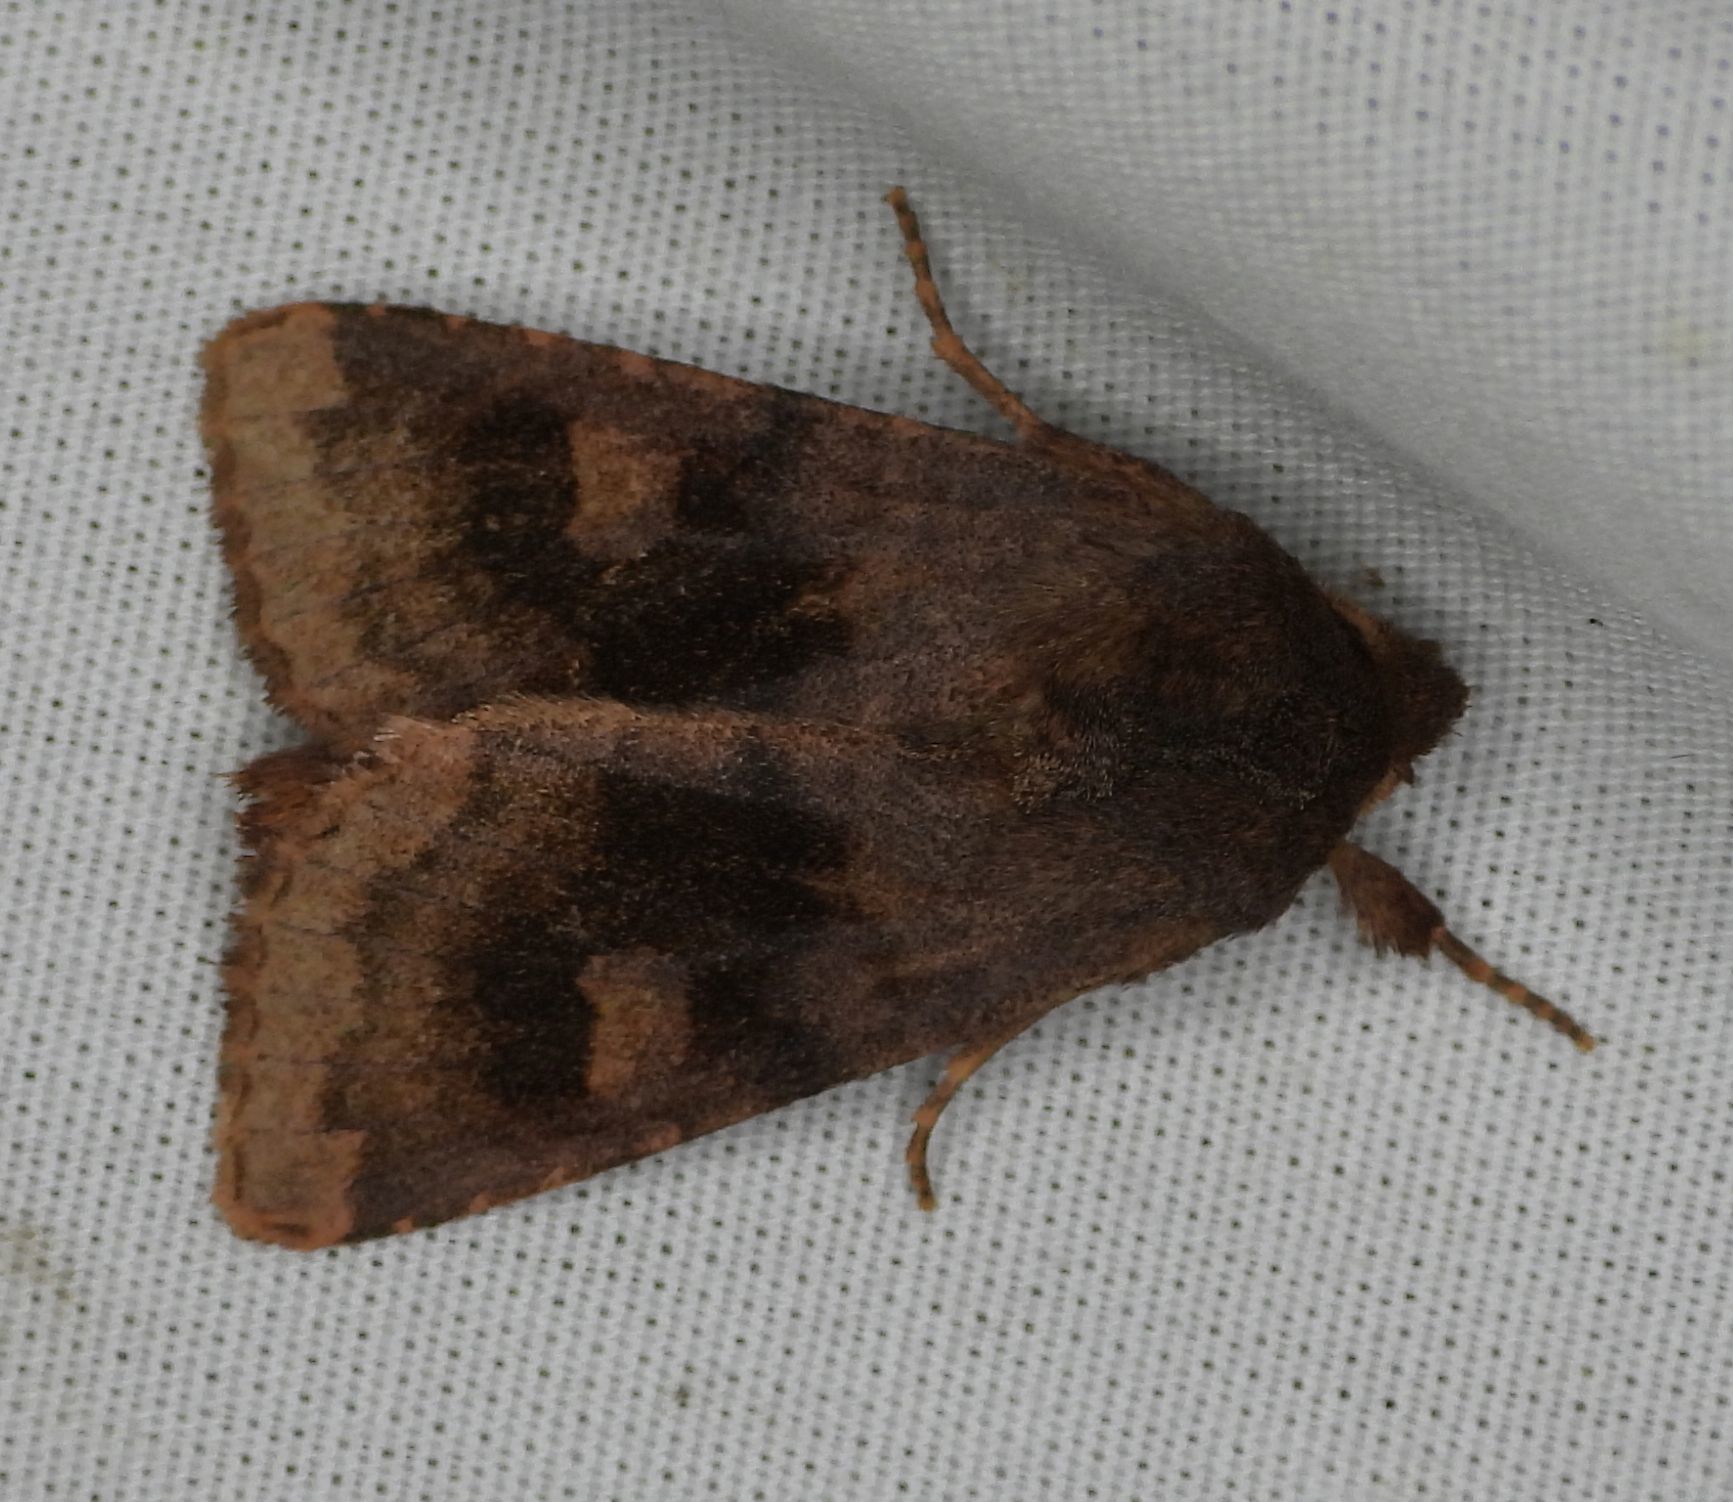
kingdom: Animalia
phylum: Arthropoda
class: Insecta
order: Lepidoptera
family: Noctuidae
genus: Nephelodes
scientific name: Nephelodes minians
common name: Bronzed cutworm
